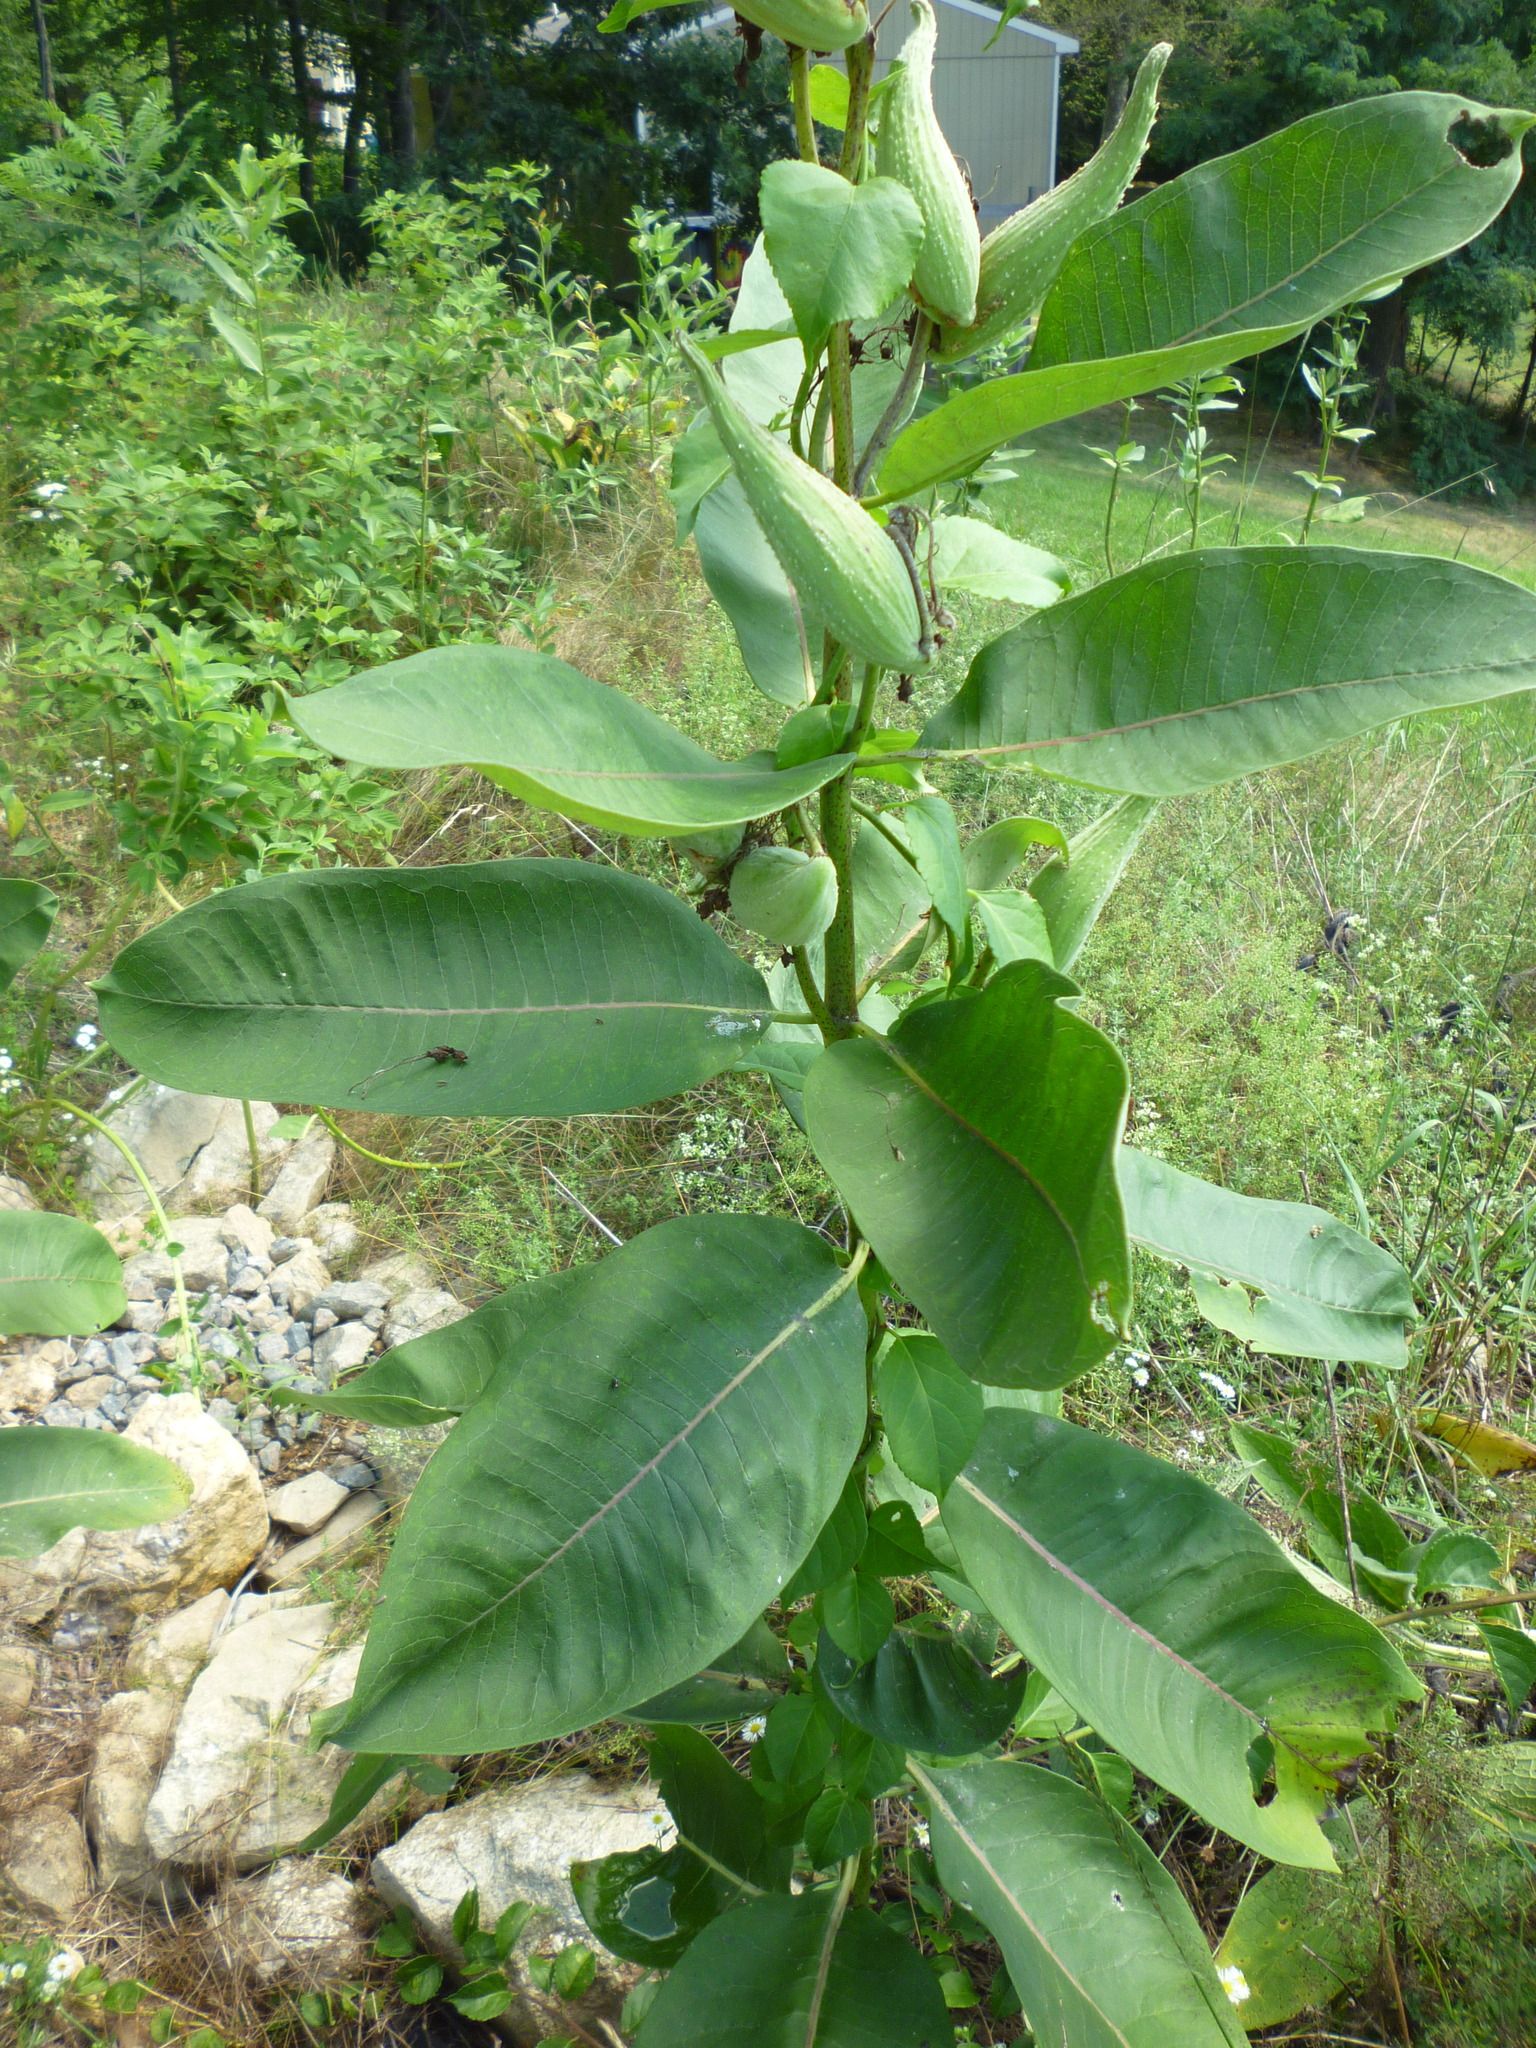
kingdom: Plantae
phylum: Tracheophyta
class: Magnoliopsida
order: Gentianales
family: Apocynaceae
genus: Asclepias
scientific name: Asclepias syriaca
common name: Common milkweed
